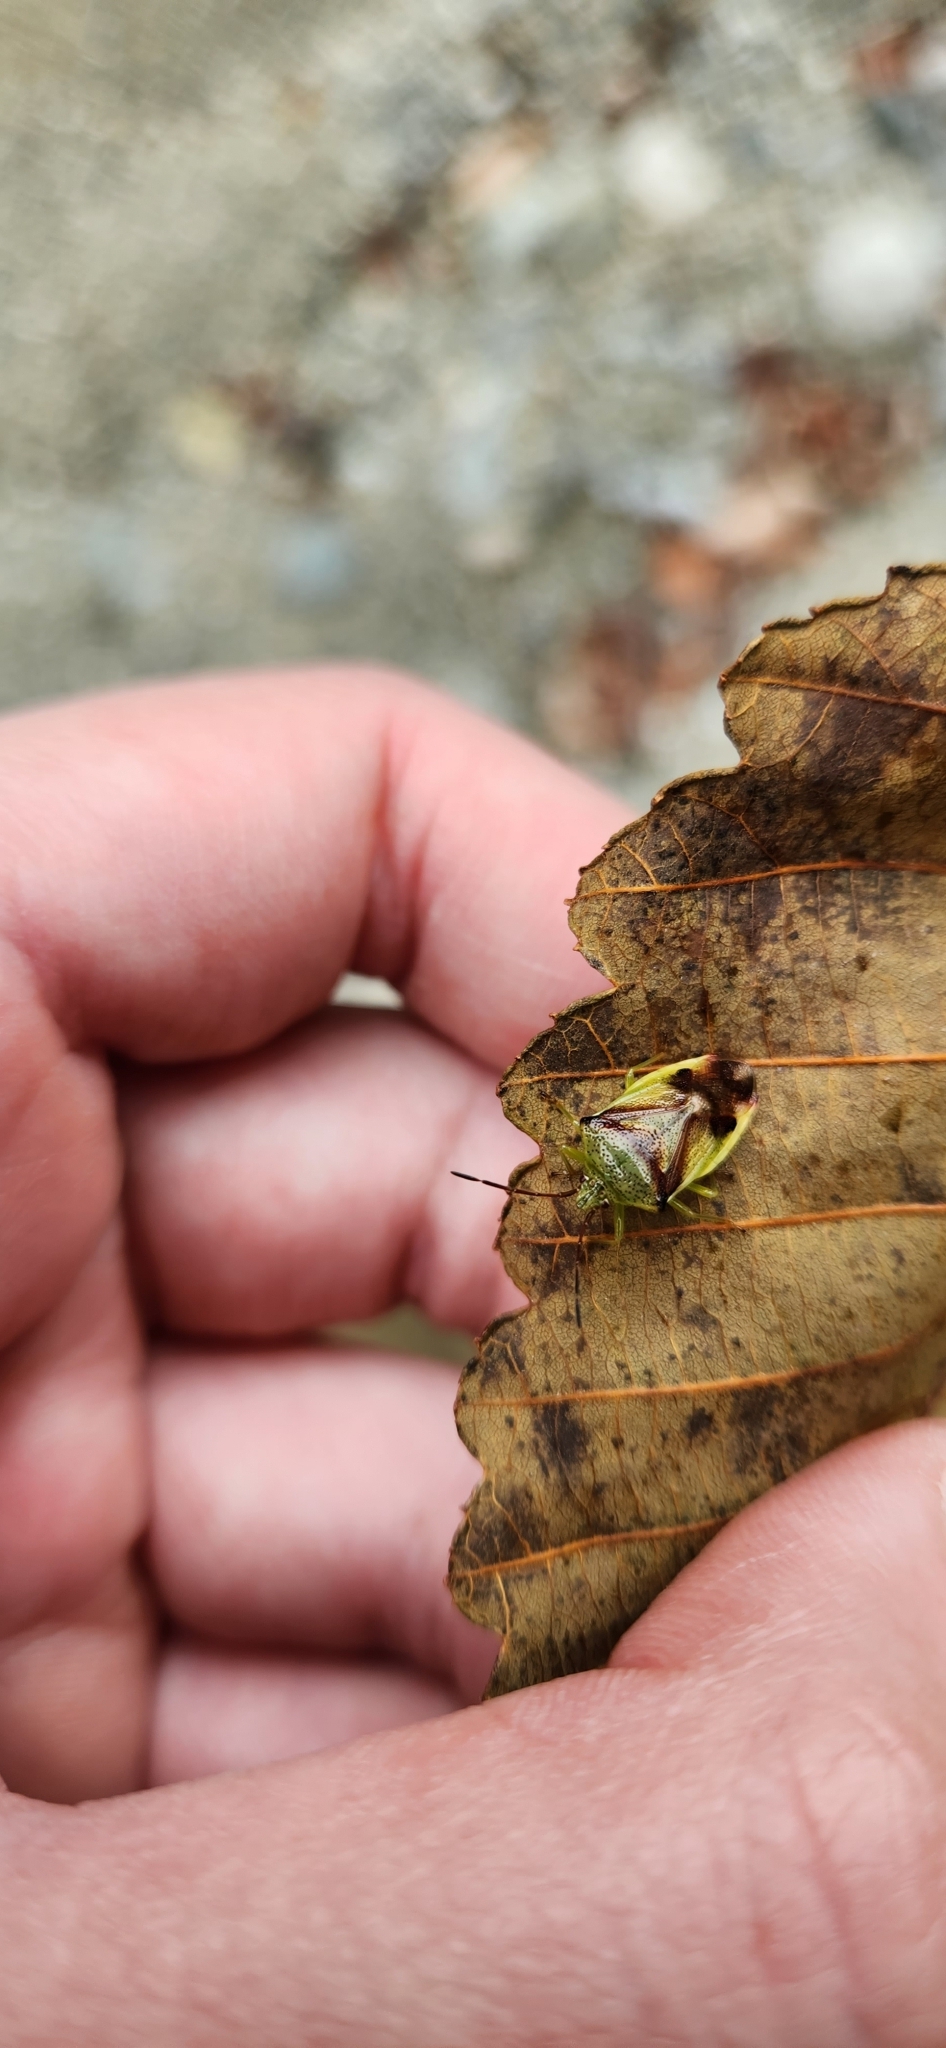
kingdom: Animalia
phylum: Arthropoda
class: Insecta
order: Hemiptera
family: Acanthosomatidae
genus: Elasmostethus
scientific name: Elasmostethus cruciatus
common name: Red-cross shield bug
